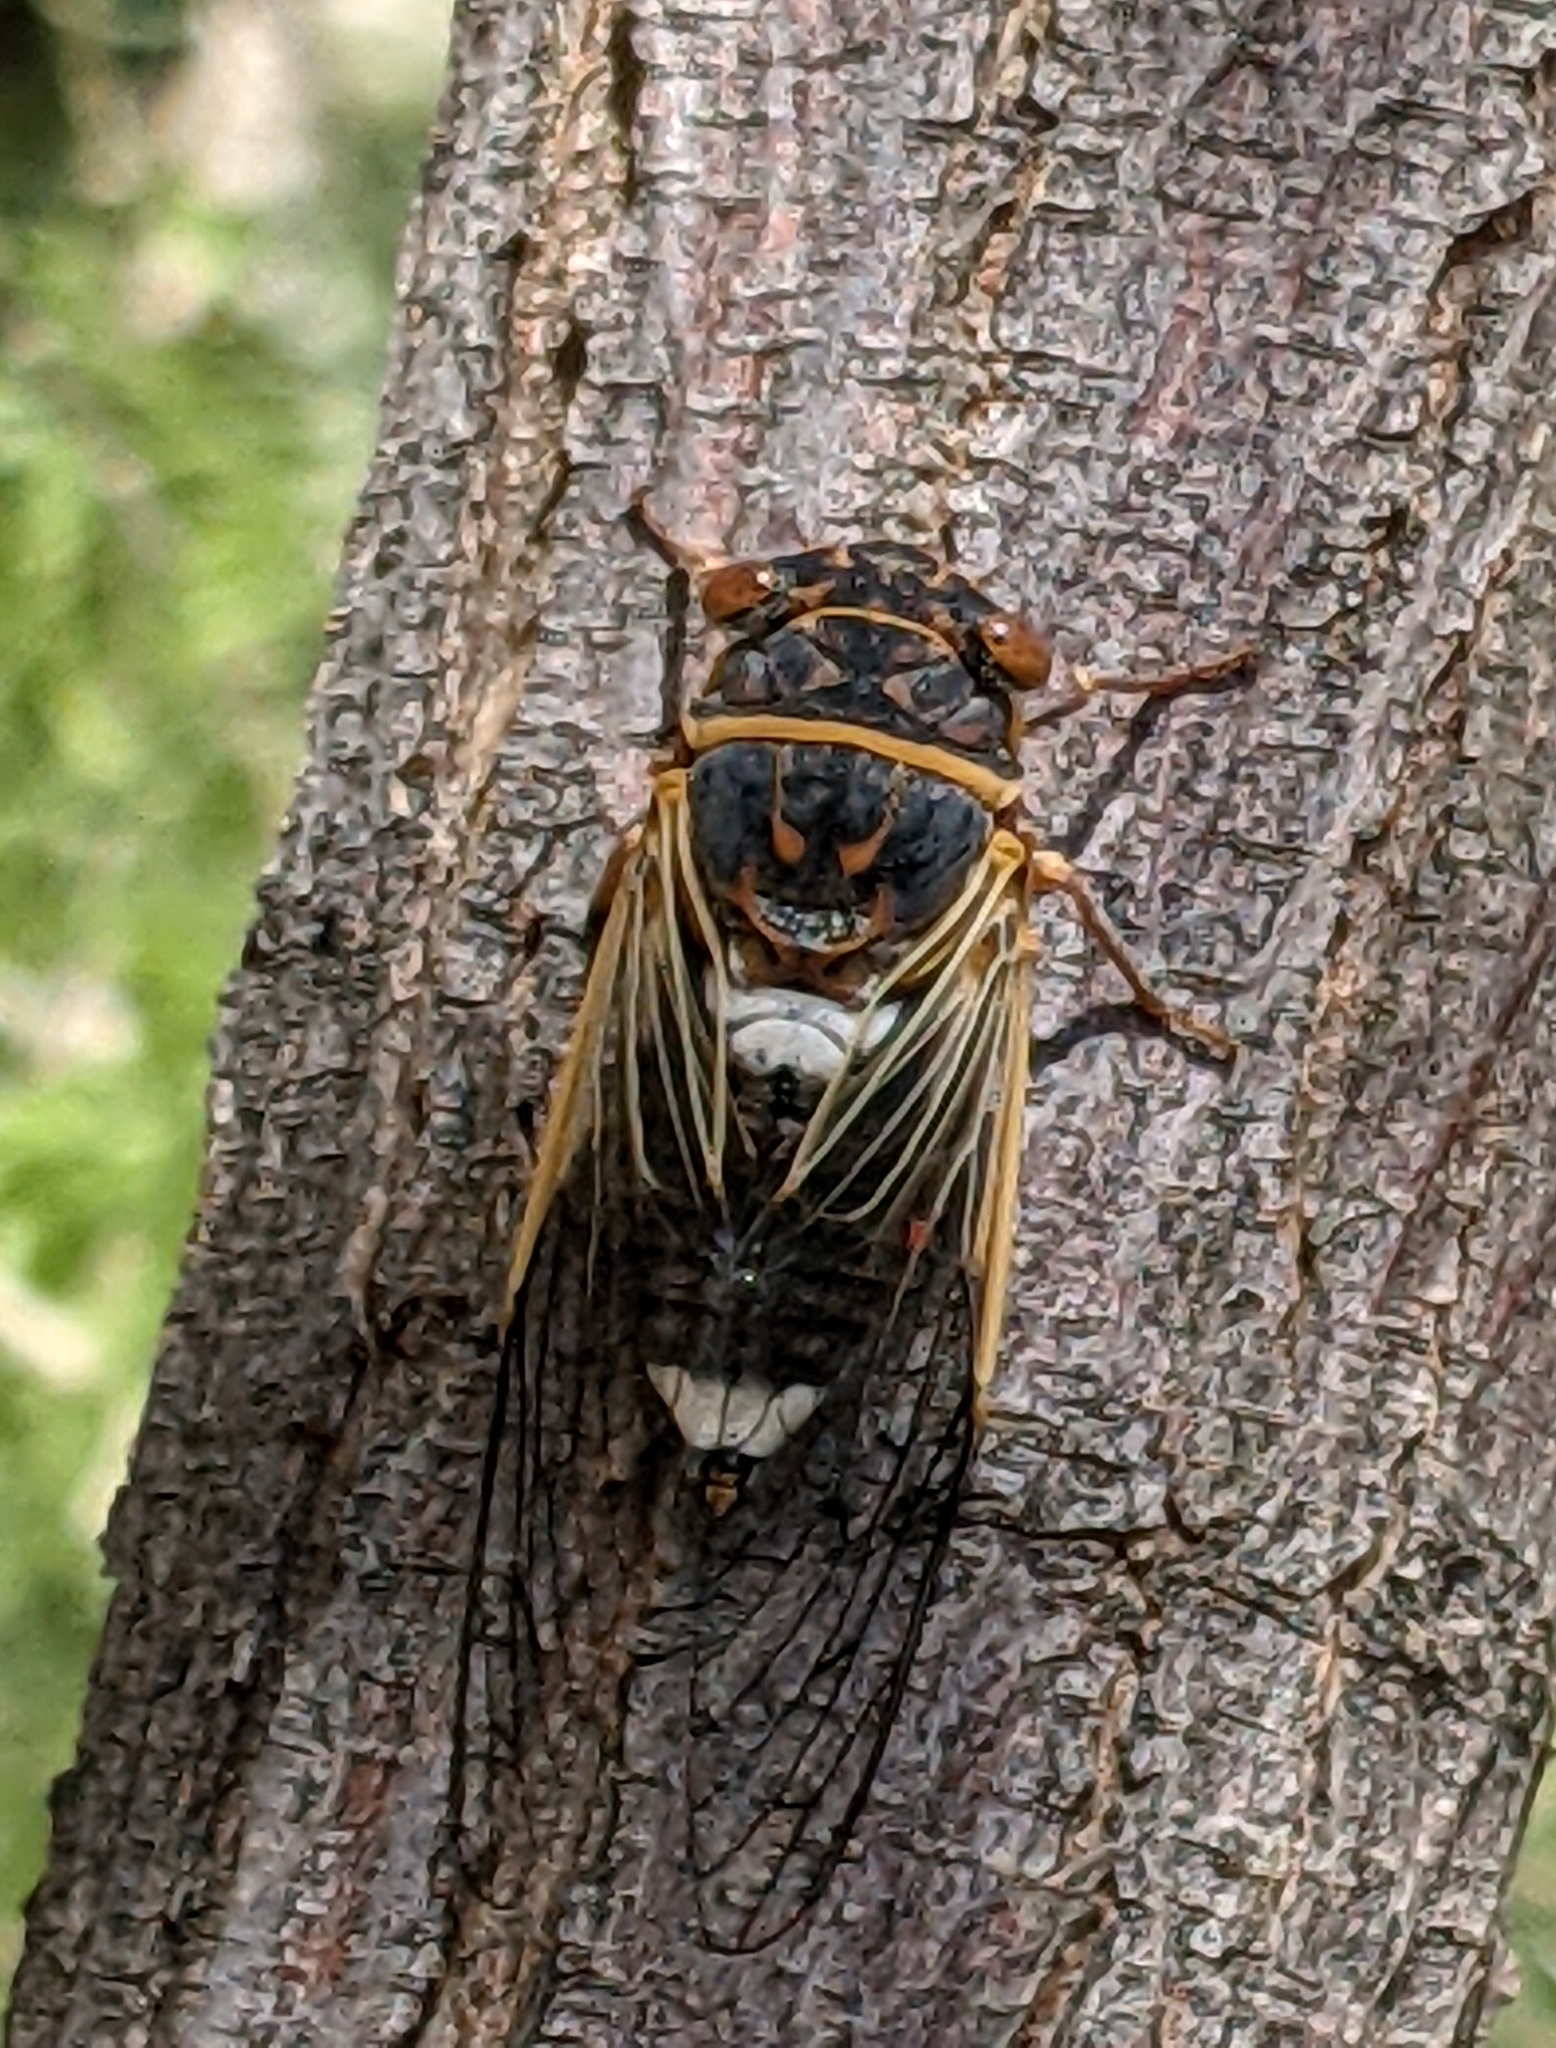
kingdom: Animalia
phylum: Arthropoda
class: Insecta
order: Hemiptera
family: Cicadidae
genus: Diceroprocta
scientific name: Diceroprocta cinctifera
